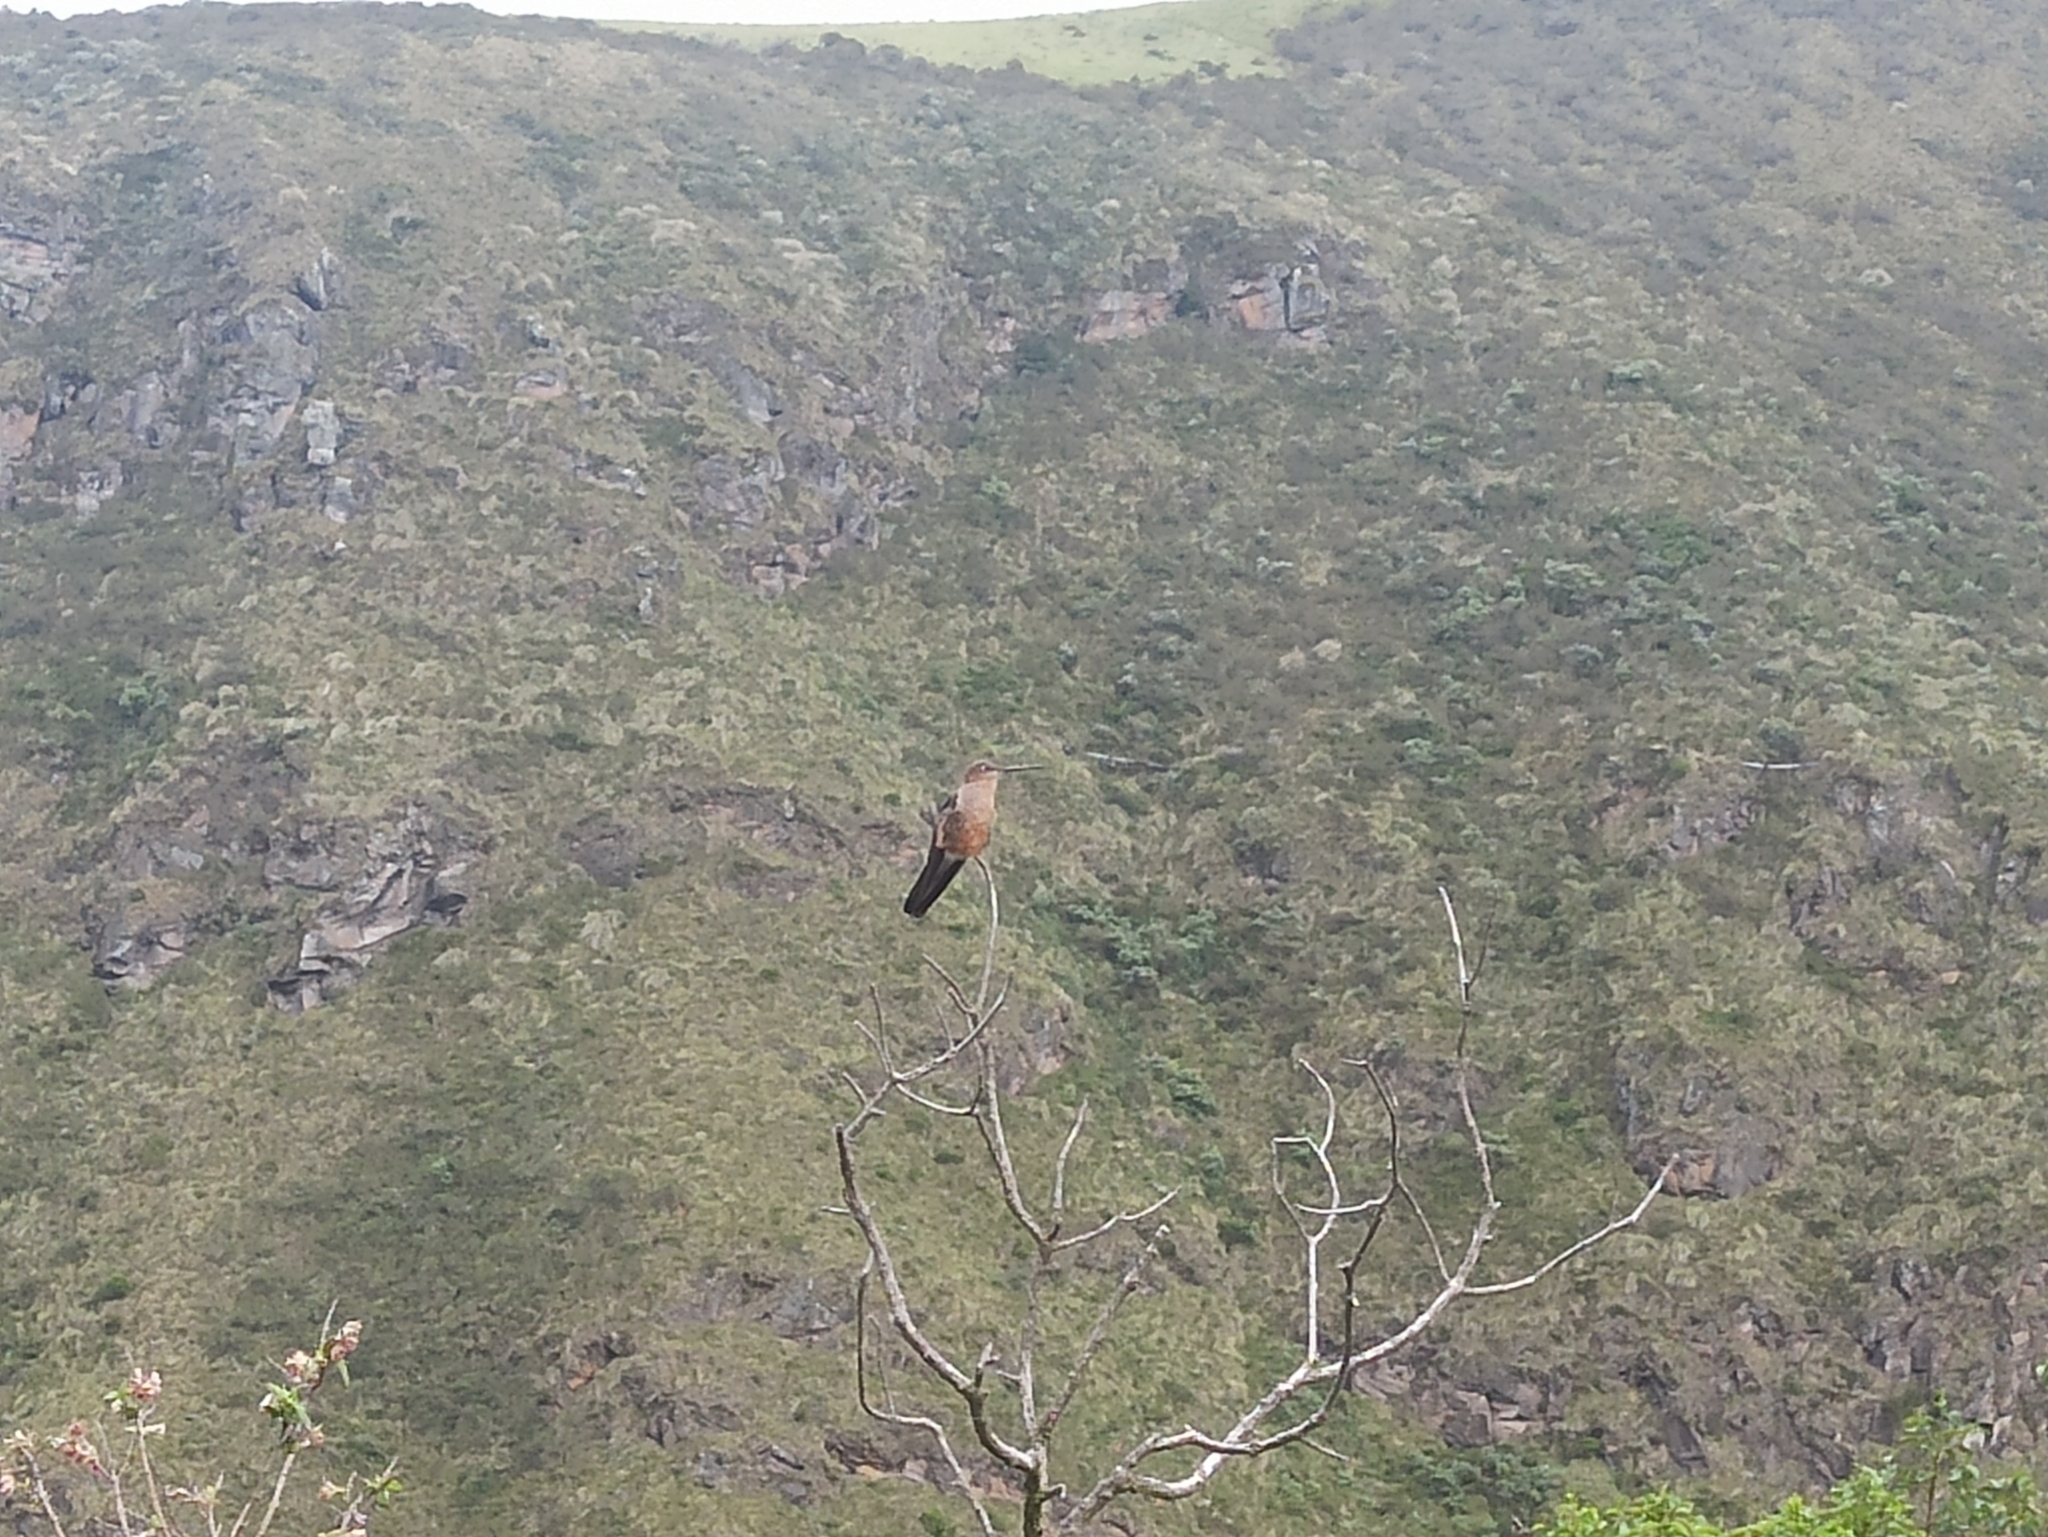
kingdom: Animalia
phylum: Chordata
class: Aves
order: Apodiformes
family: Trochilidae
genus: Patagona
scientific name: Patagona gigas
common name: Giant hummingbird
